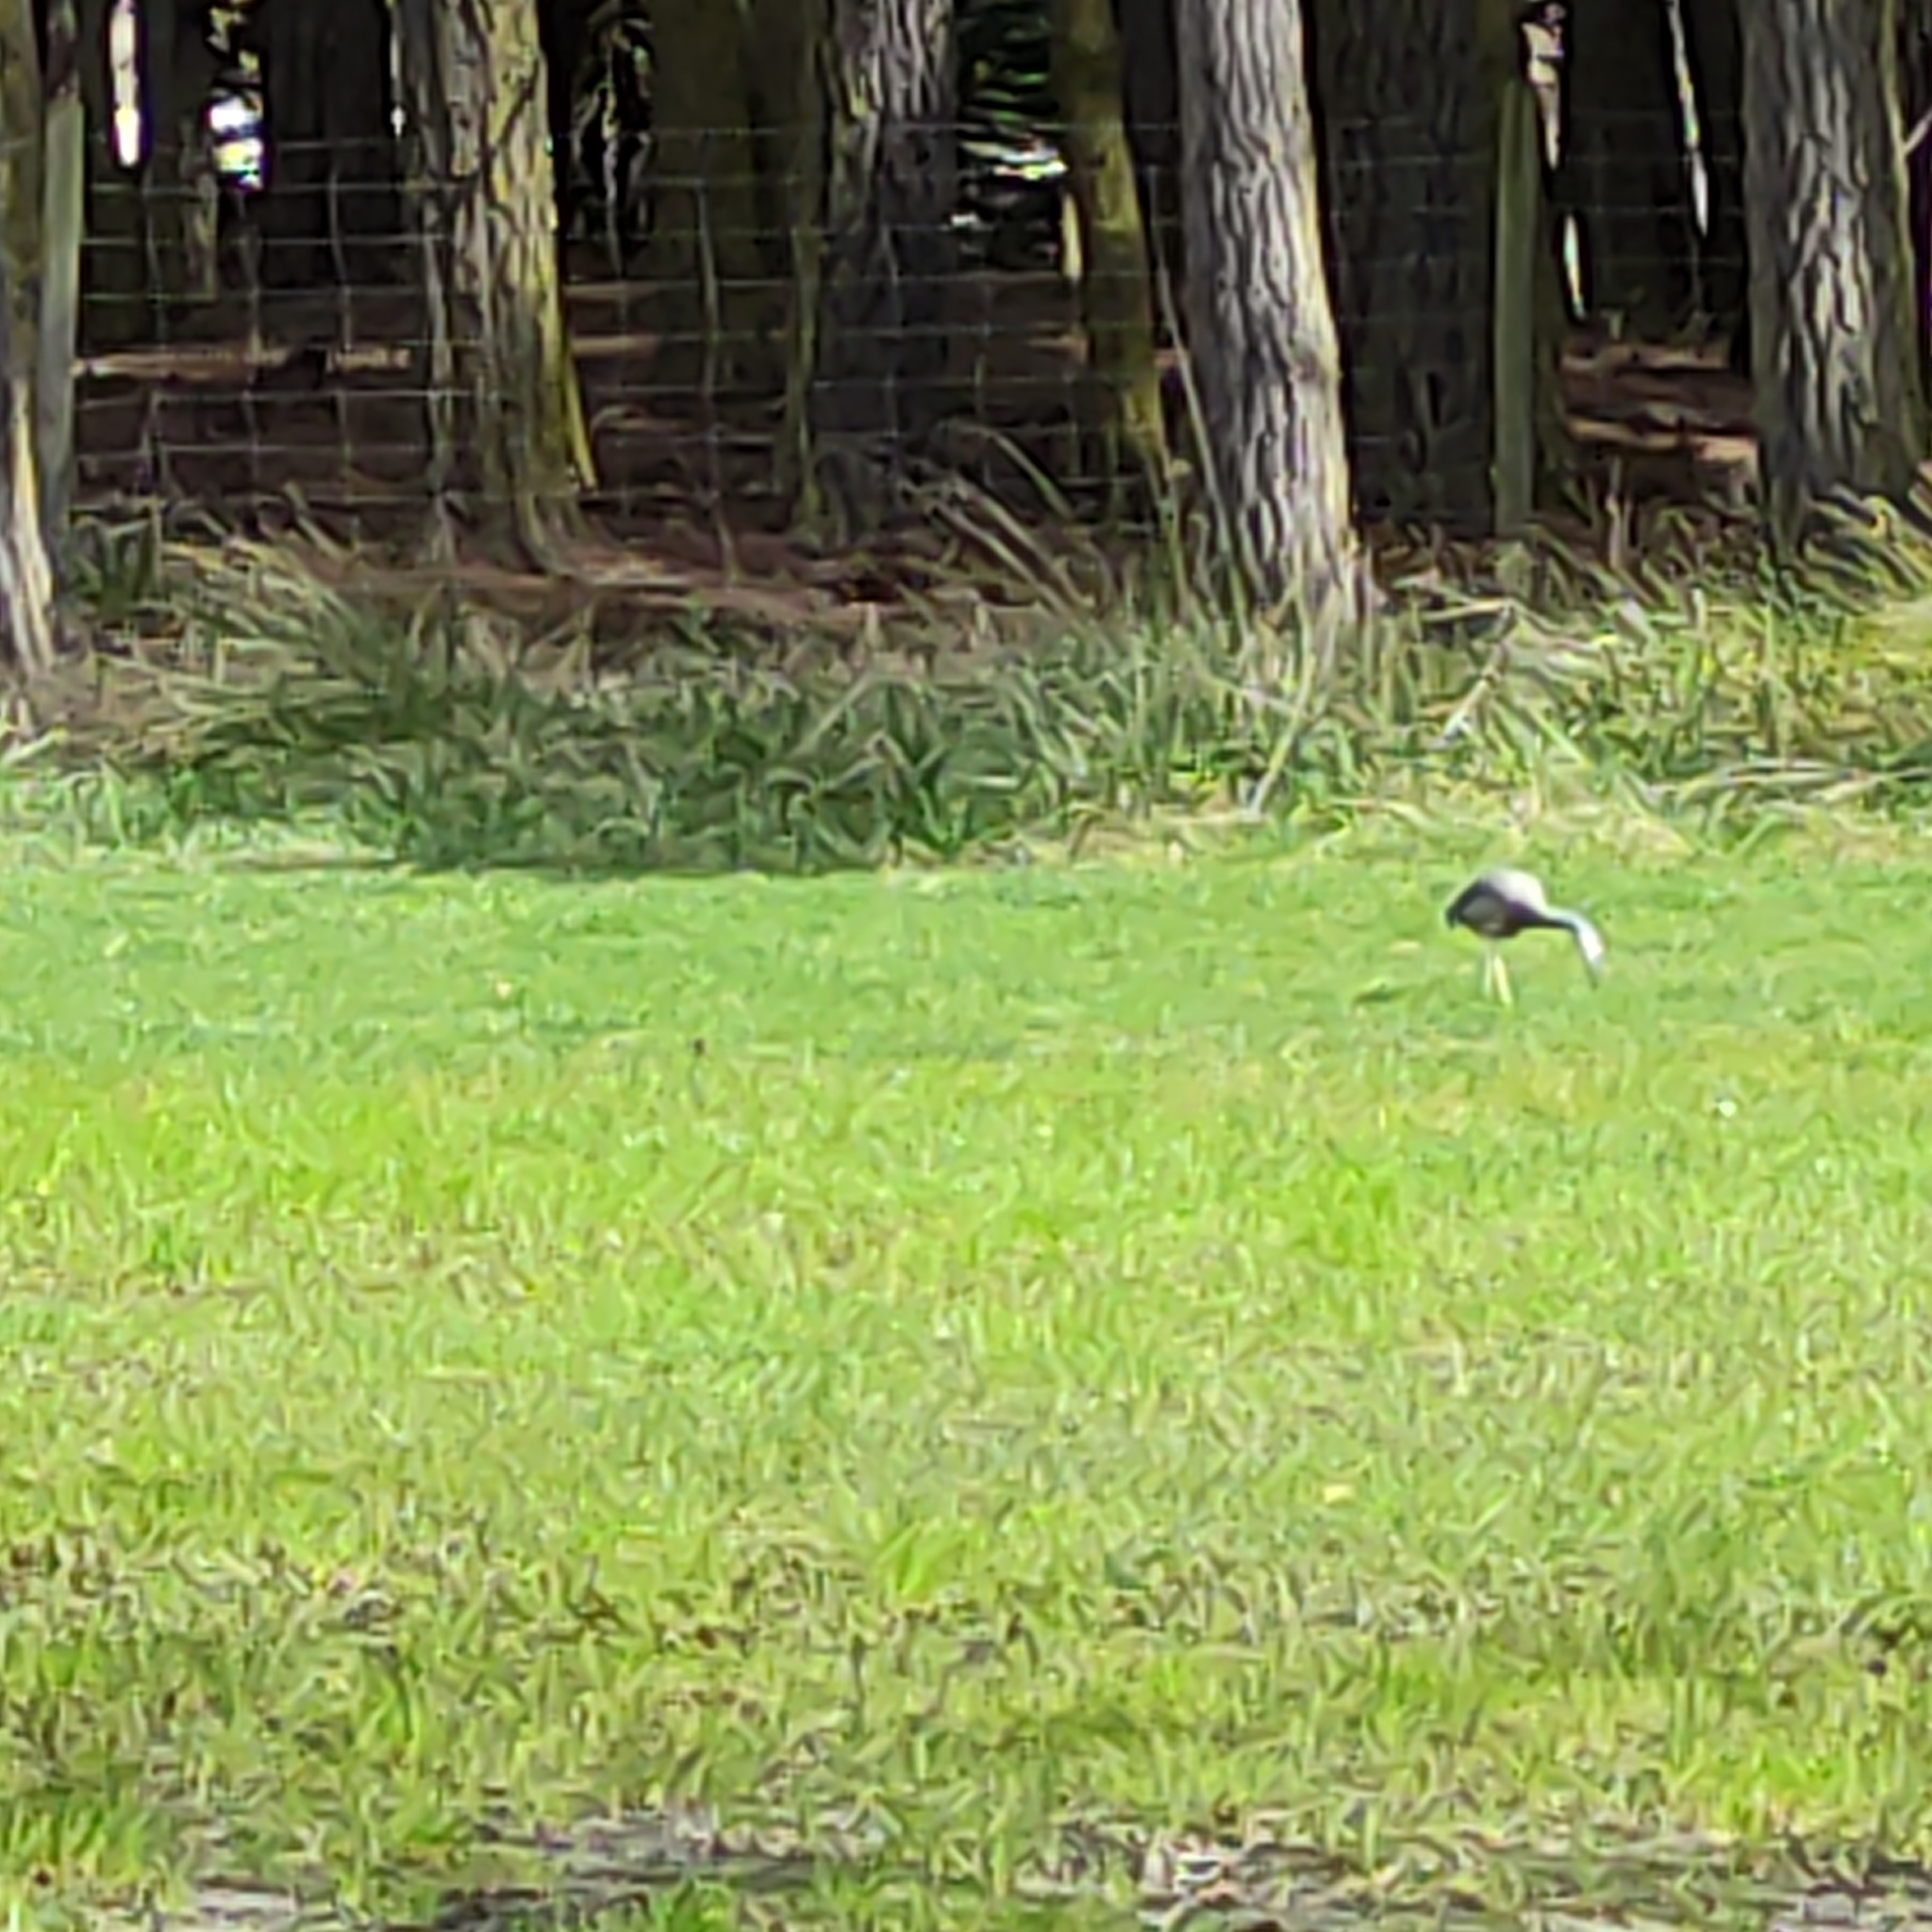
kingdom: Animalia
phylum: Chordata
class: Aves
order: Pelecaniformes
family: Ardeidae
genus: Egretta
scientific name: Egretta novaehollandiae
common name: White-faced heron
